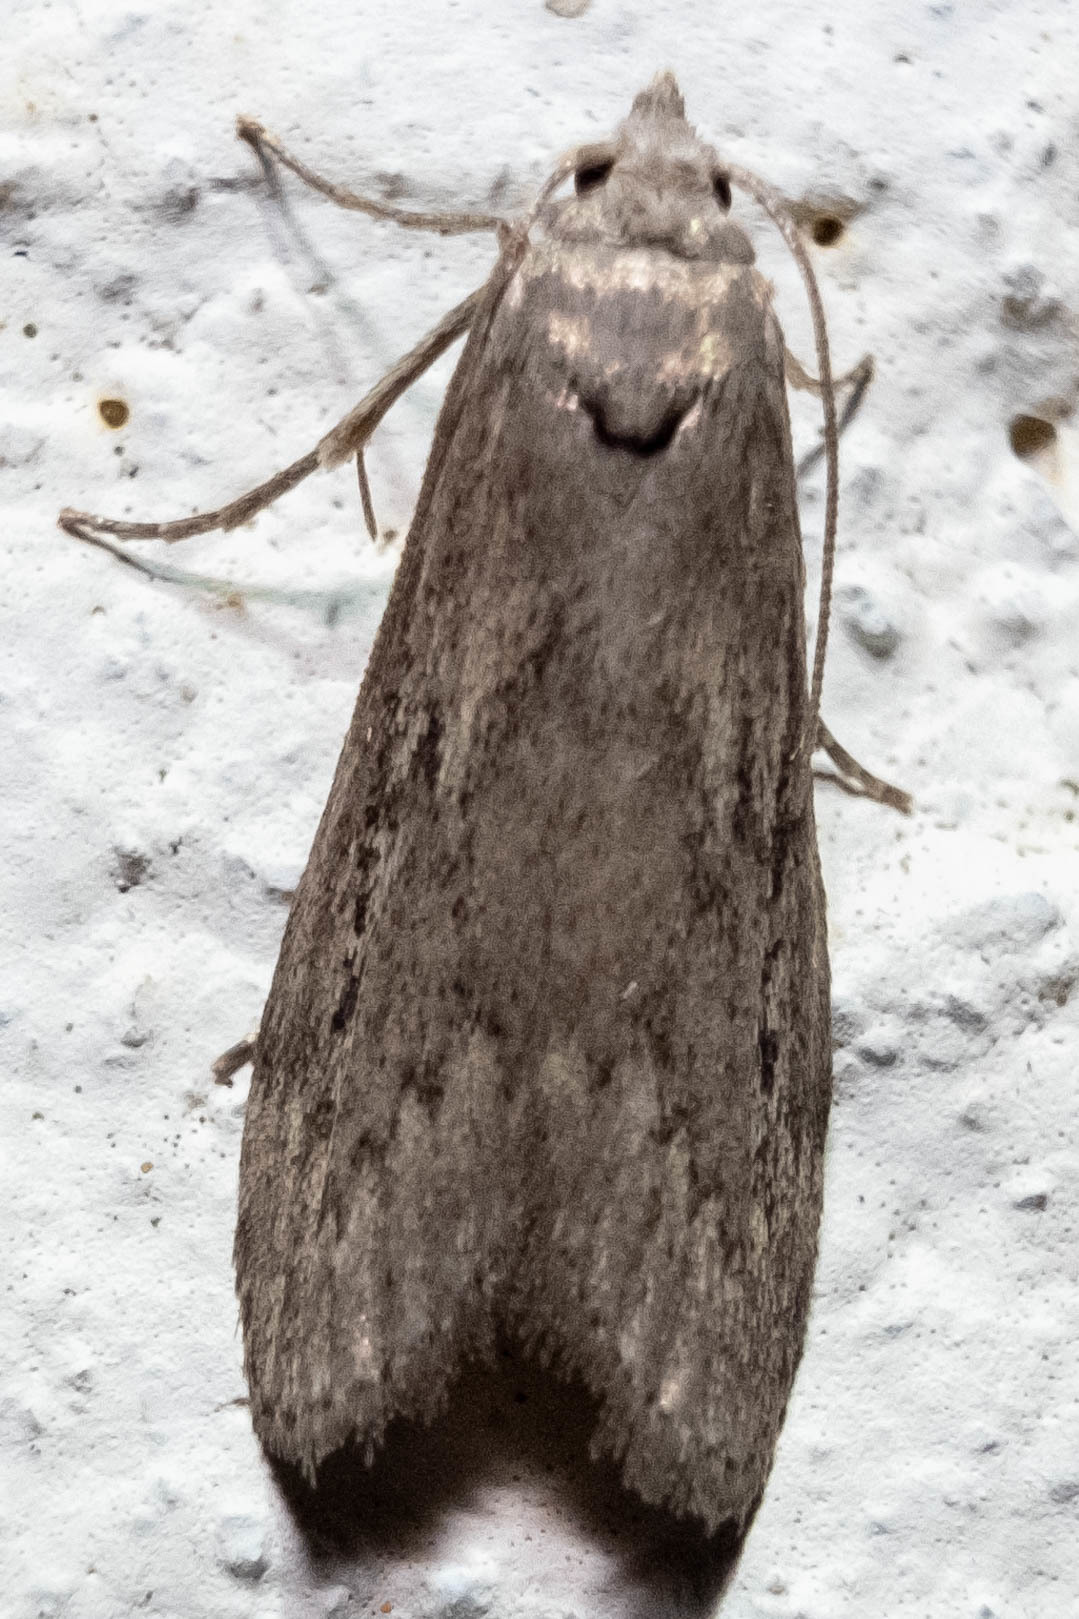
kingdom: Animalia
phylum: Arthropoda
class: Insecta
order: Lepidoptera
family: Pyralidae
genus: Aphomia
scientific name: Aphomia sociella
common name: Bee moth
